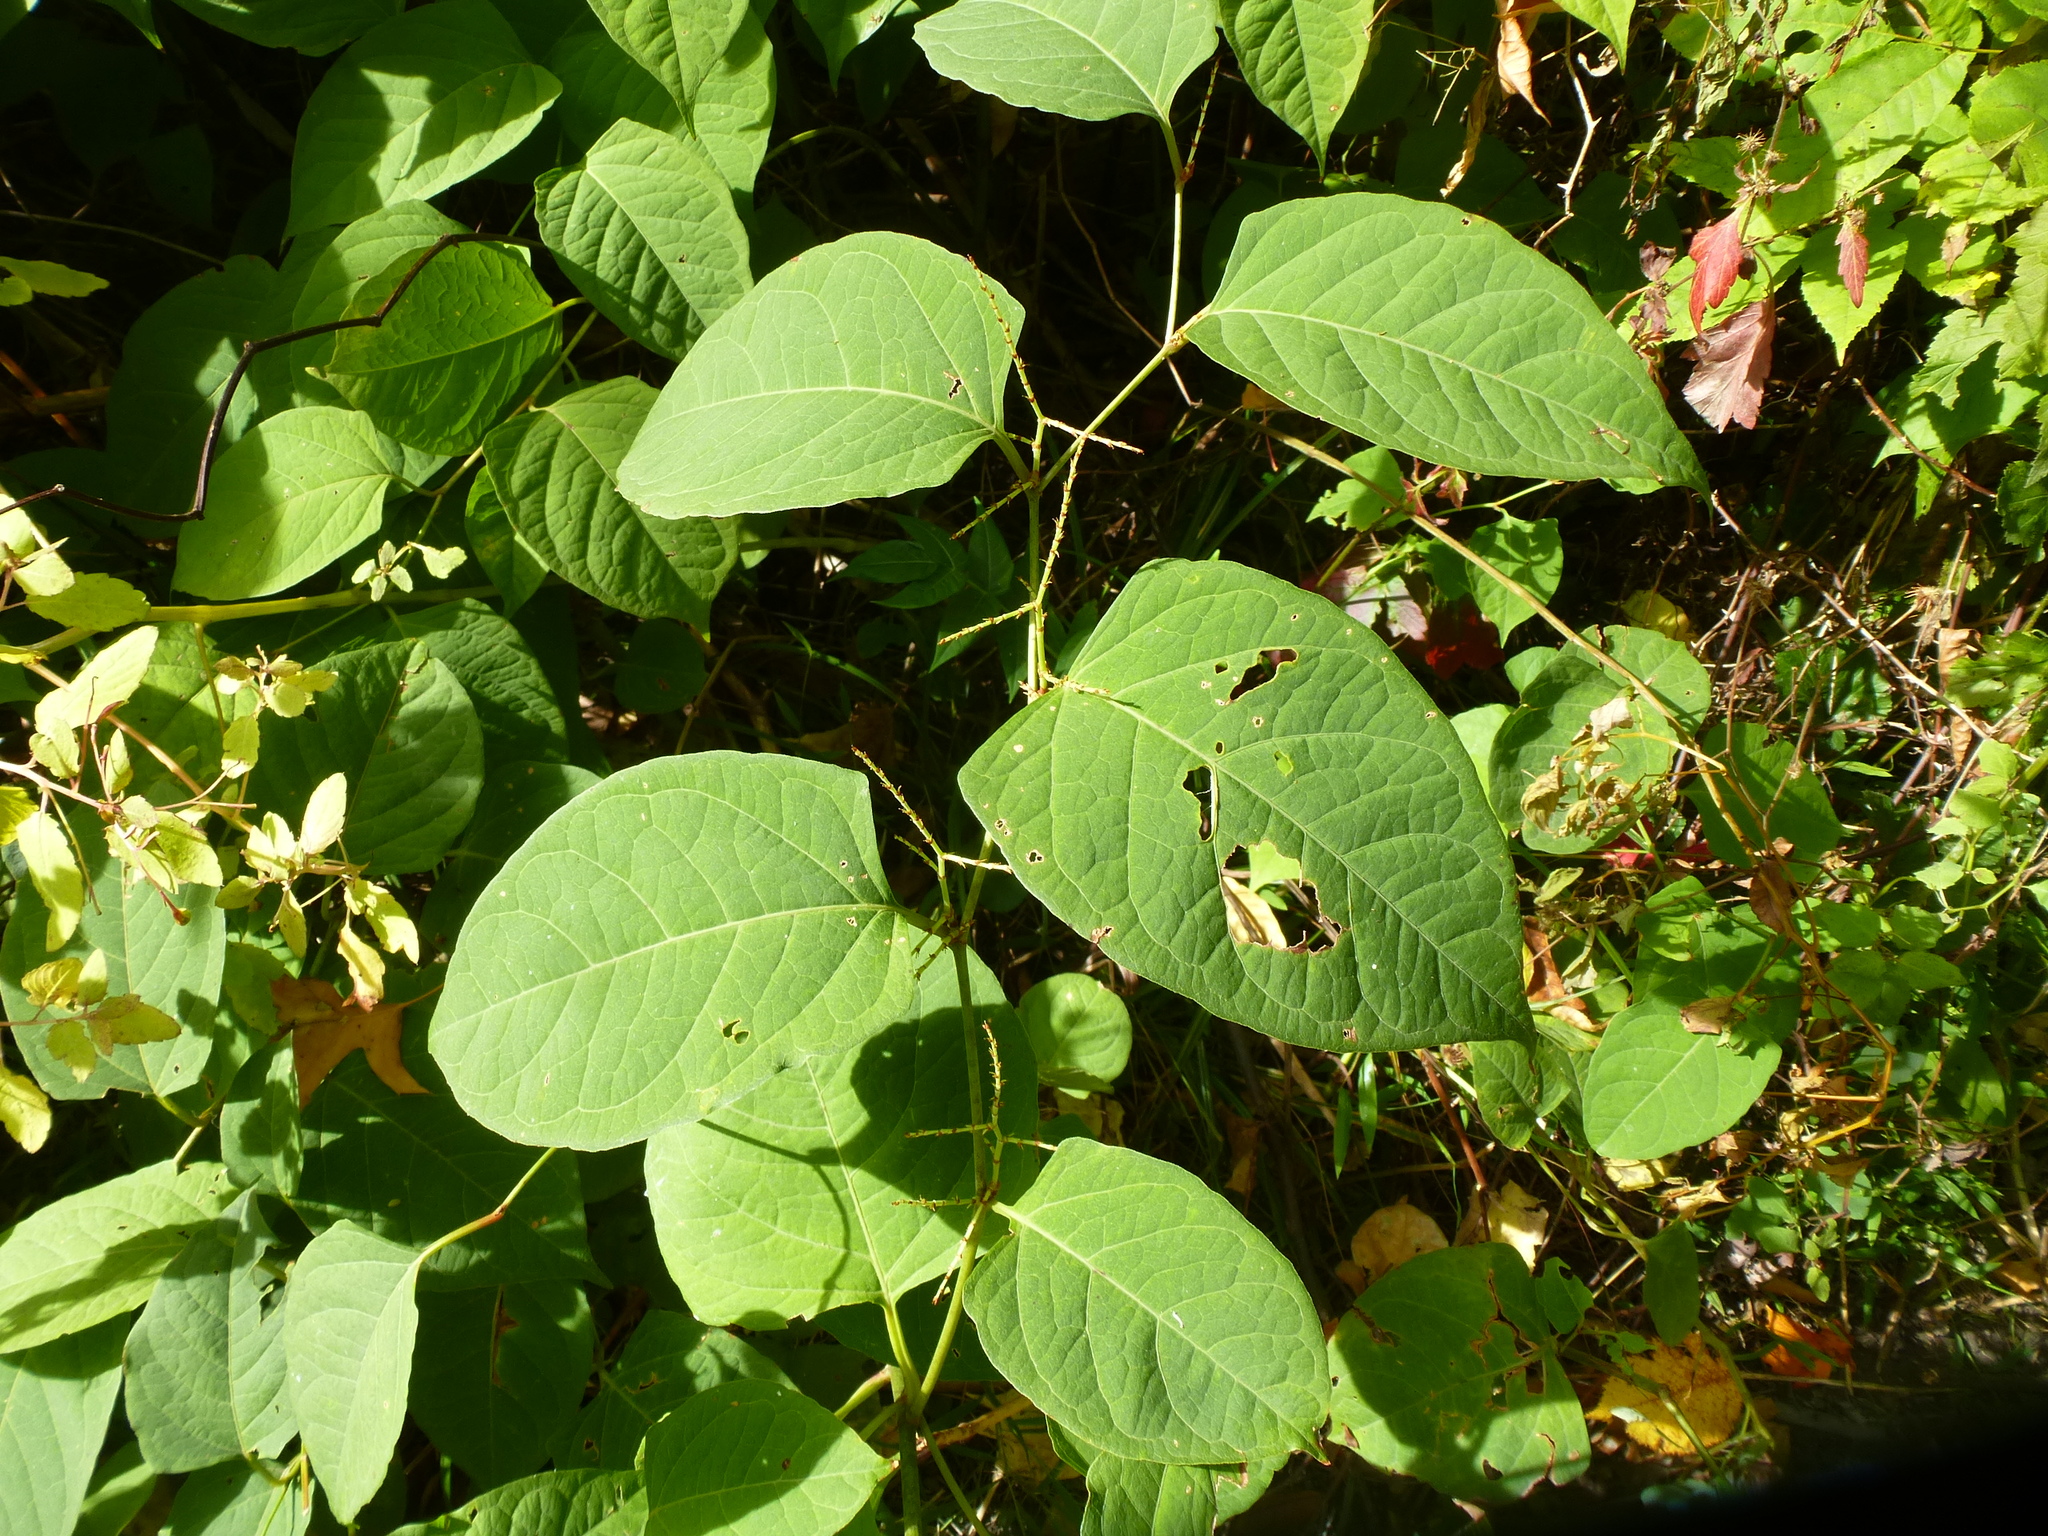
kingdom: Plantae
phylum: Tracheophyta
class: Magnoliopsida
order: Caryophyllales
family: Polygonaceae
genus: Reynoutria
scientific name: Reynoutria japonica
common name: Japanese knotweed
